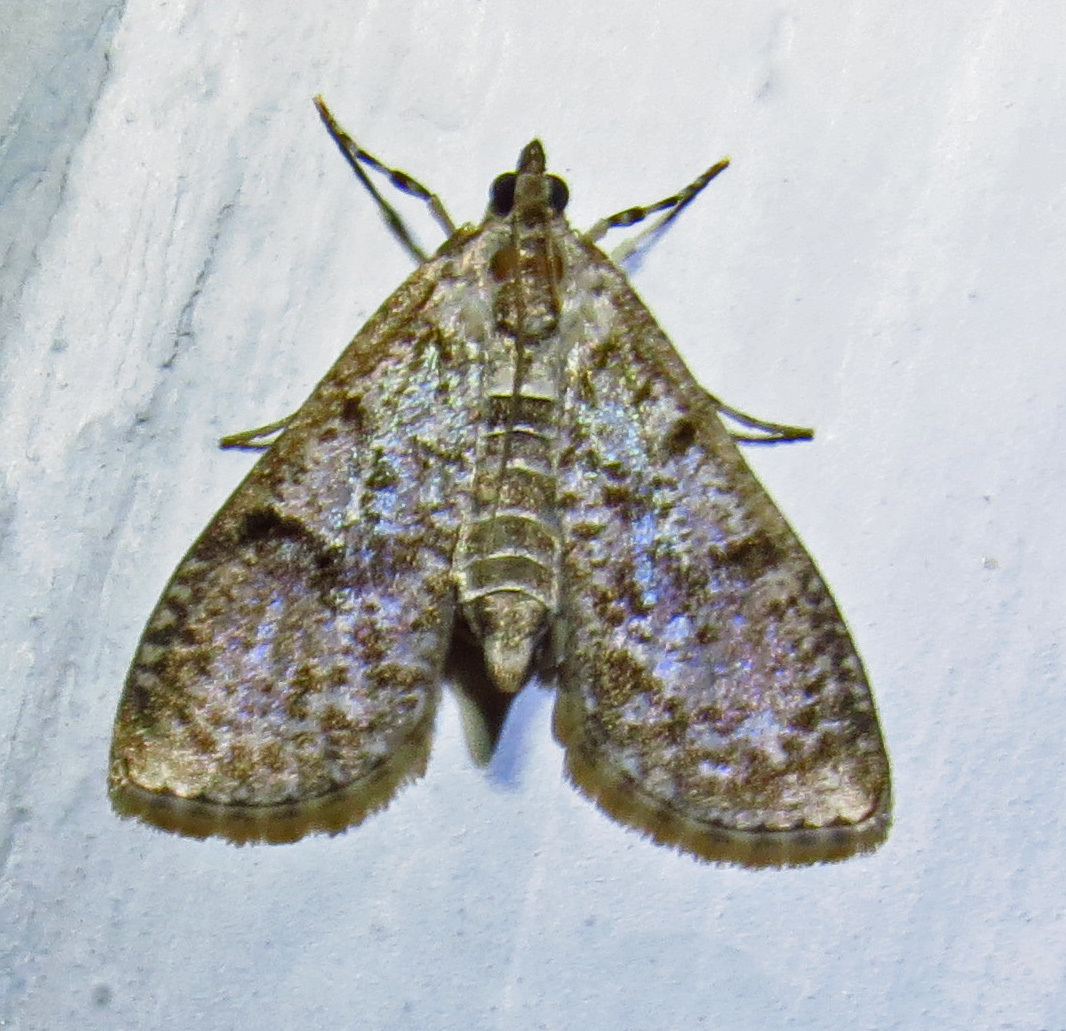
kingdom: Animalia
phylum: Arthropoda
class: Insecta
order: Lepidoptera
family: Crambidae
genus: Palpita
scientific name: Palpita magniferalis
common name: Splendid palpita moth
